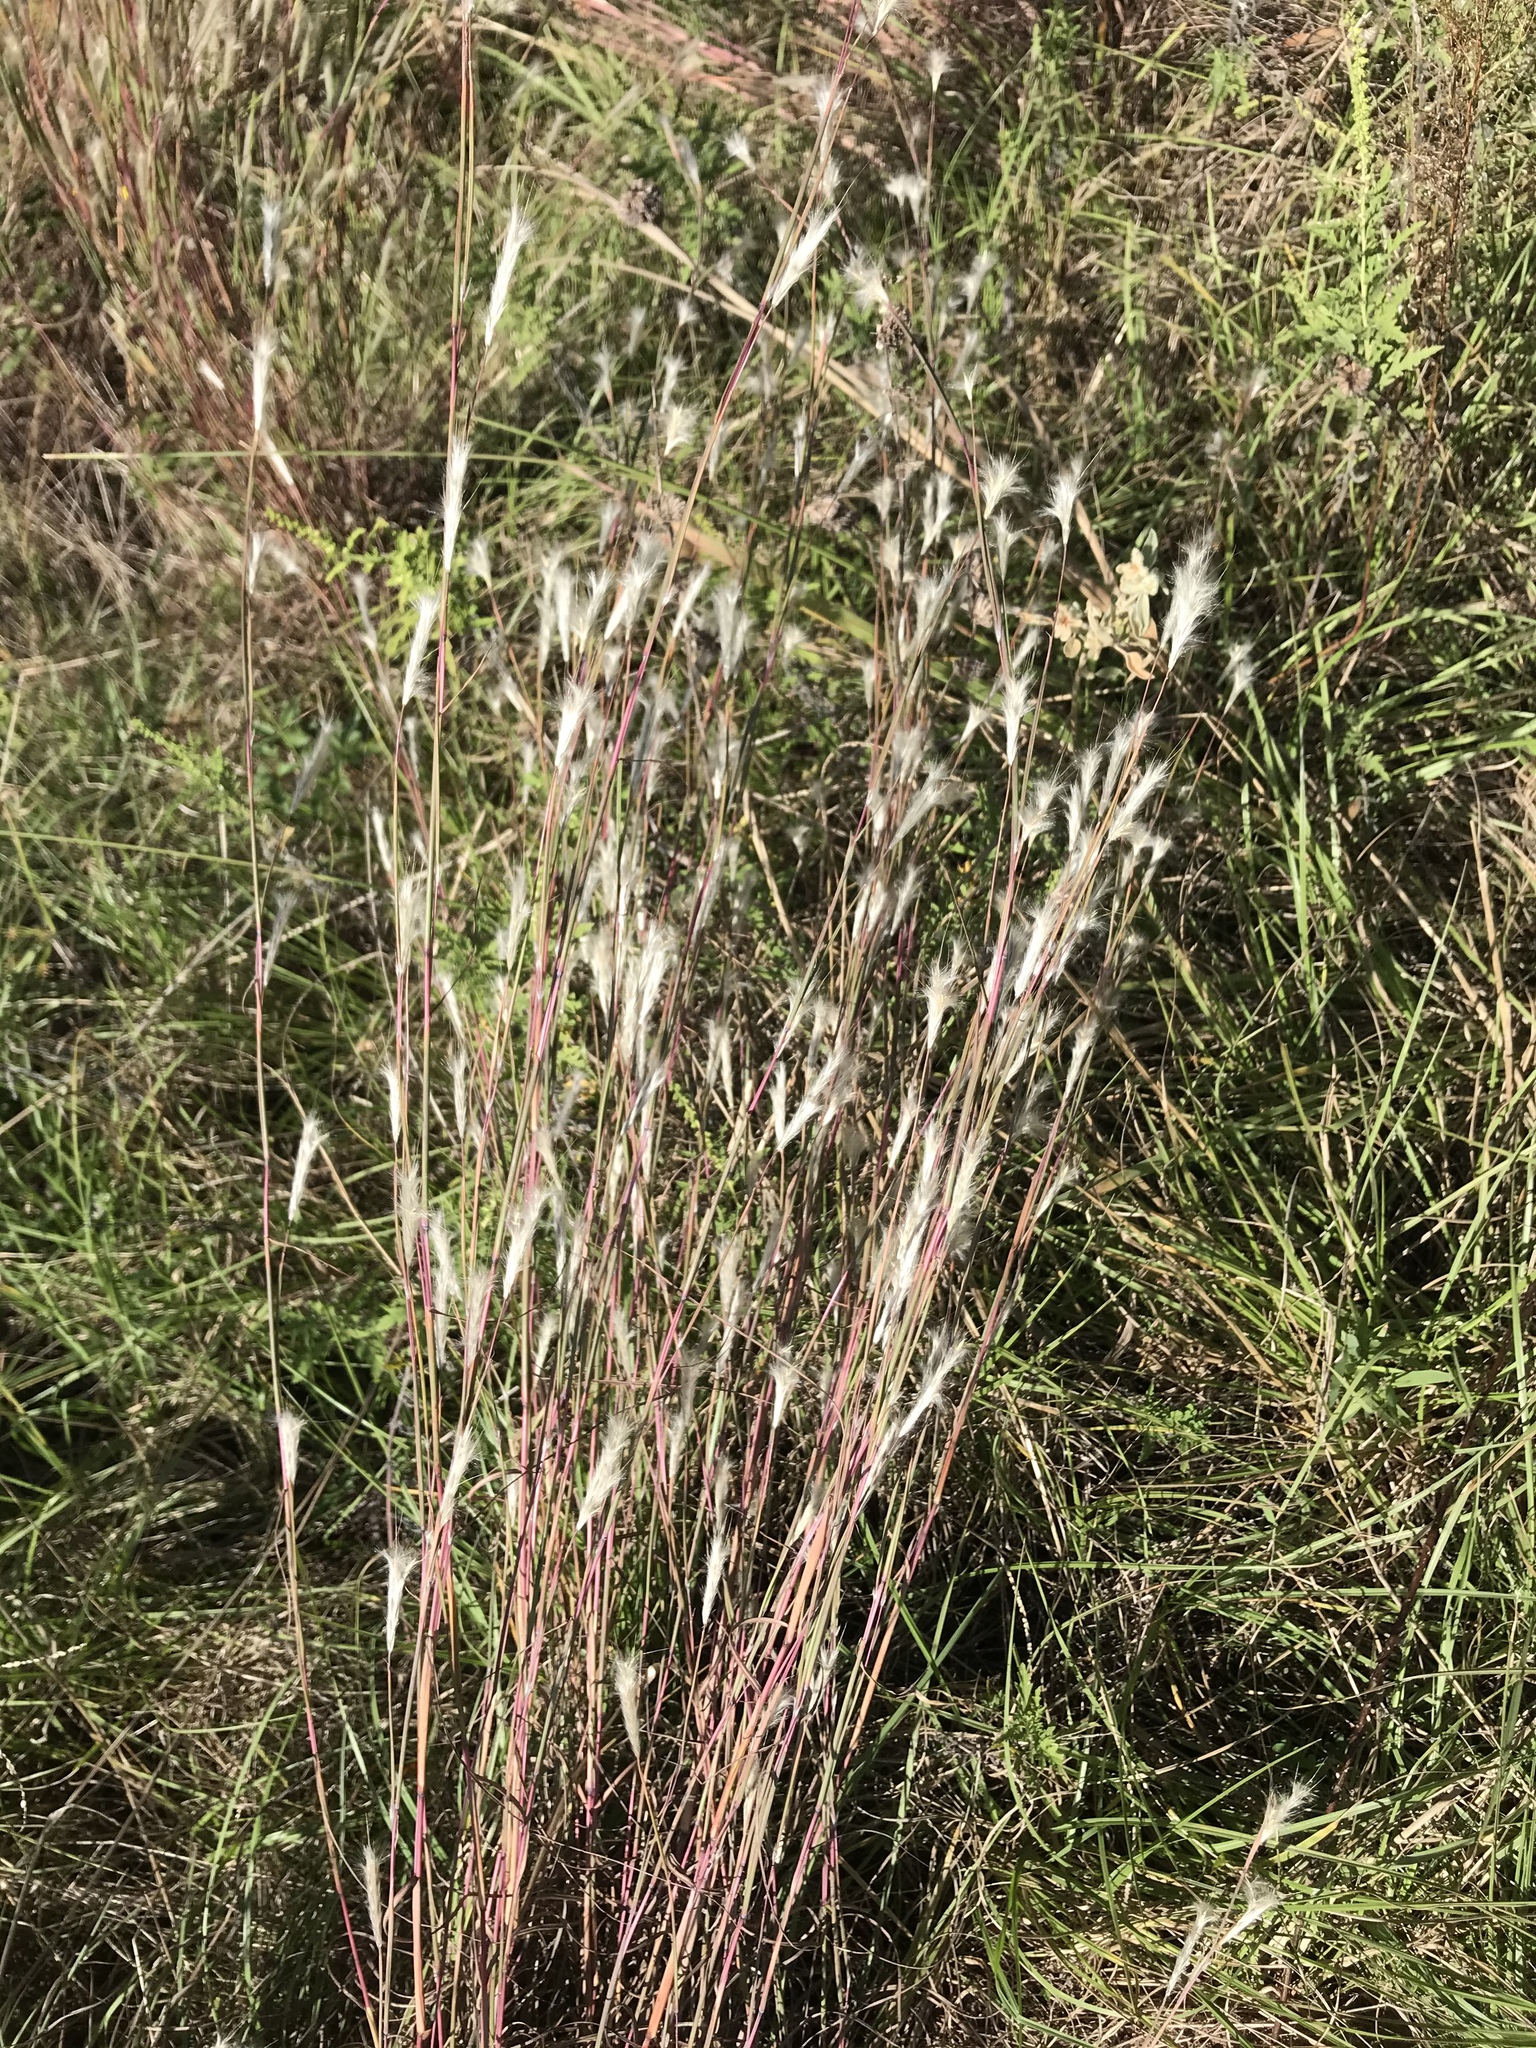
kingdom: Plantae
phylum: Tracheophyta
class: Liliopsida
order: Poales
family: Poaceae
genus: Andropogon
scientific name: Andropogon ternarius
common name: Split bluestem
